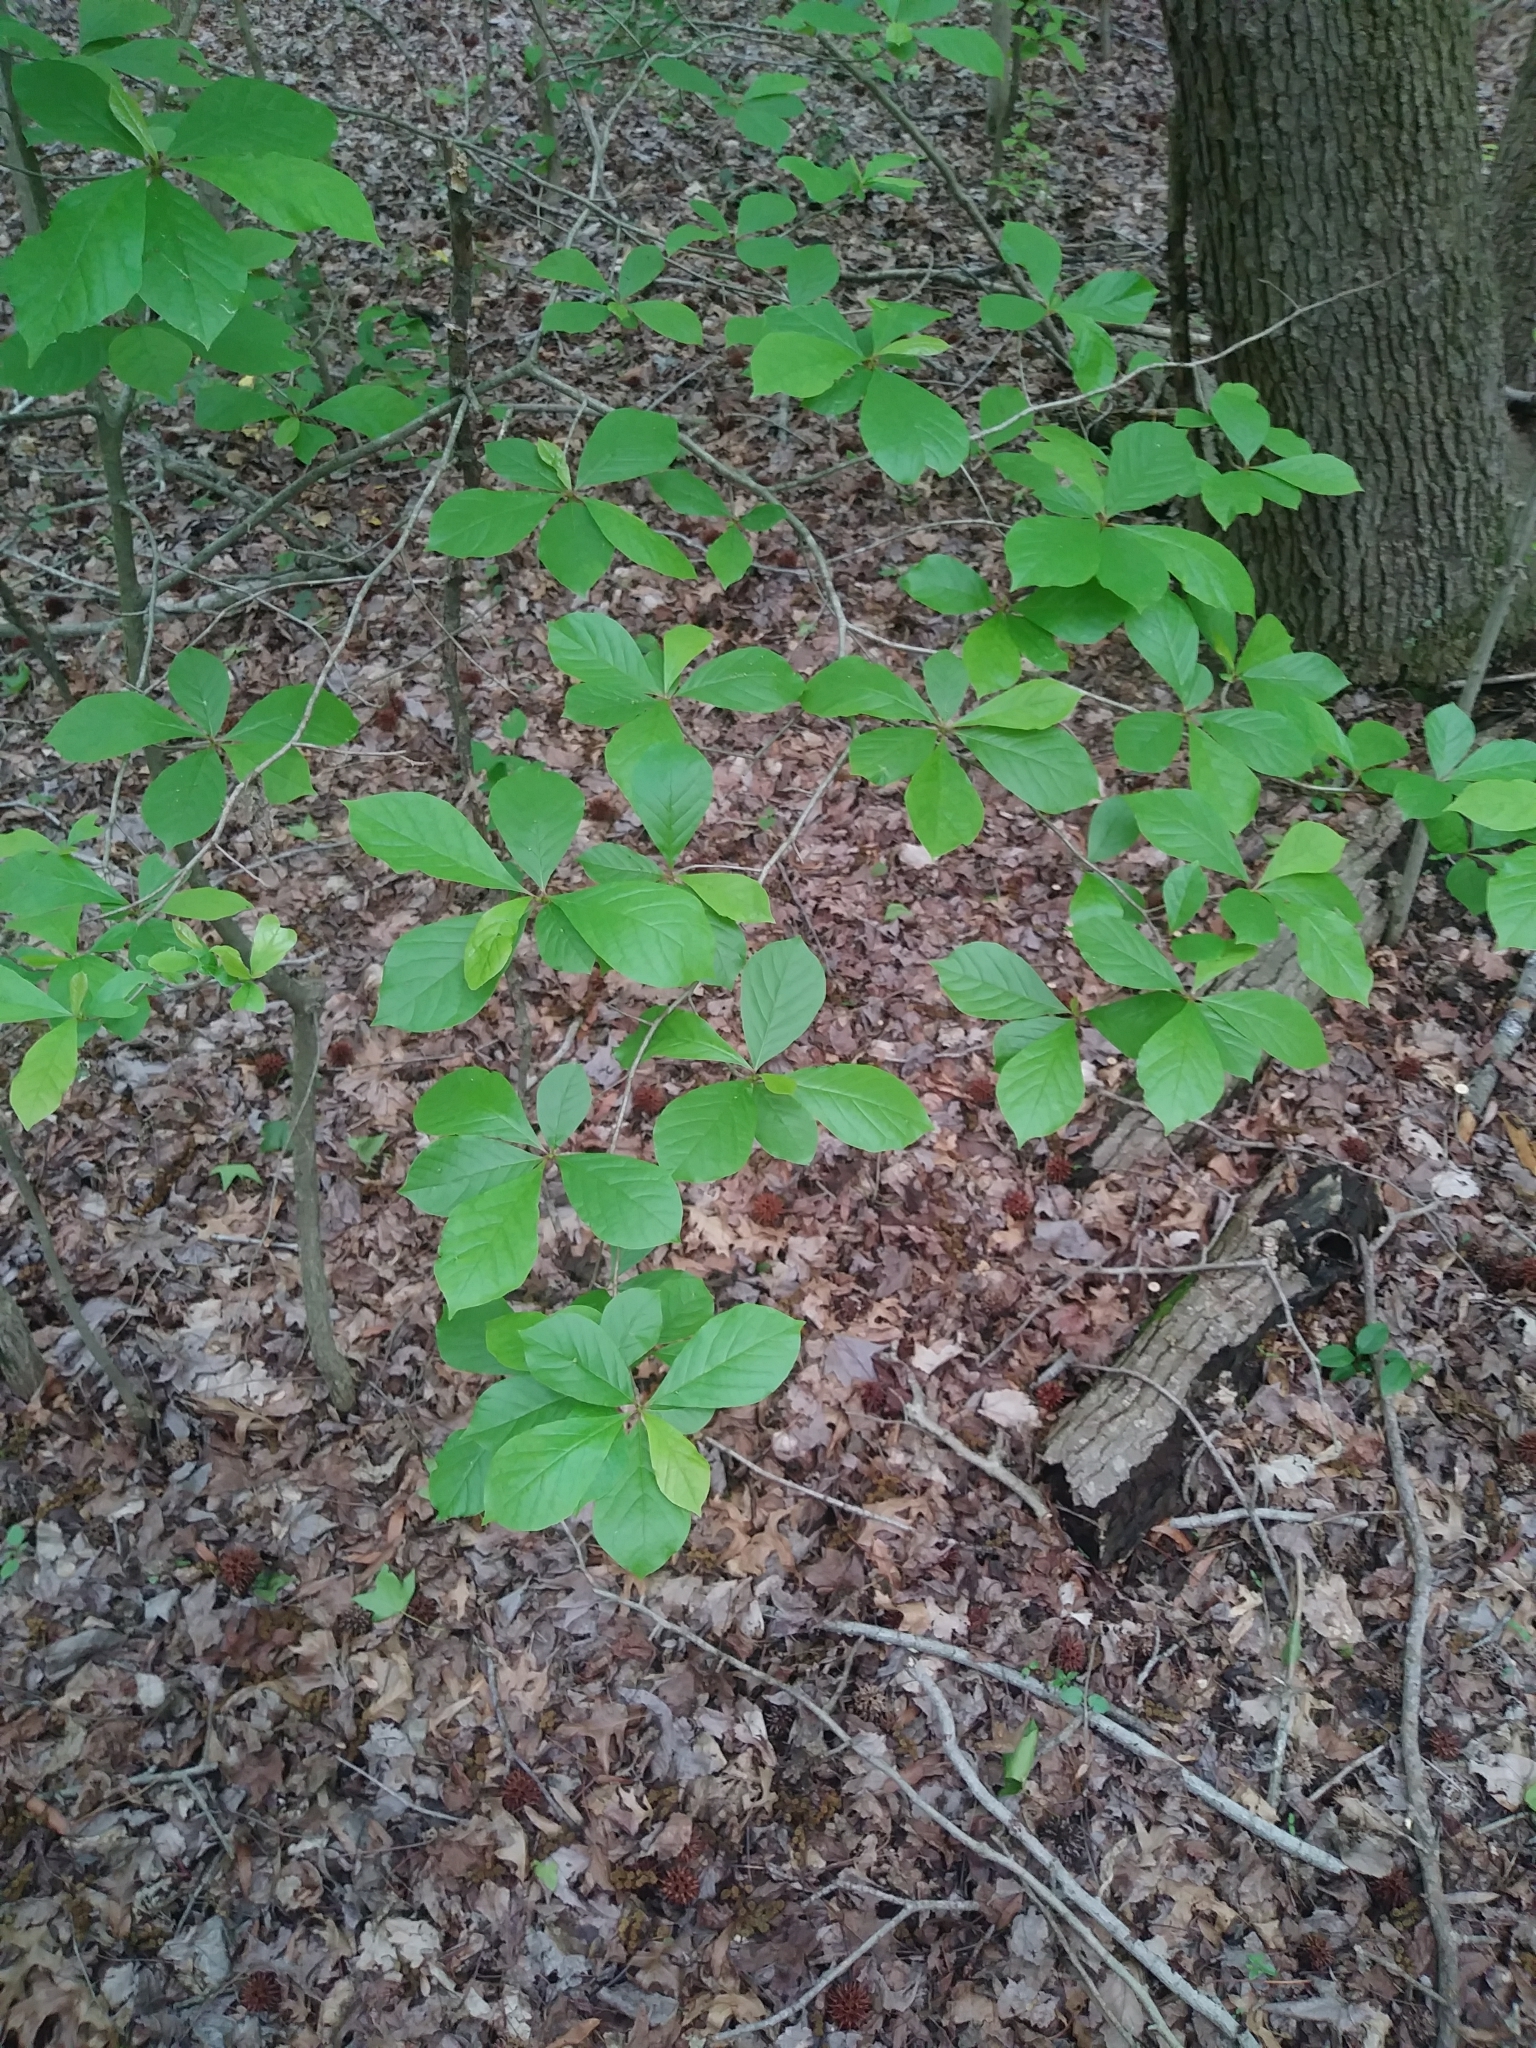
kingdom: Plantae
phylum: Tracheophyta
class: Magnoliopsida
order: Cornales
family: Nyssaceae
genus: Nyssa
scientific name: Nyssa sylvatica
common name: Black tupelo
